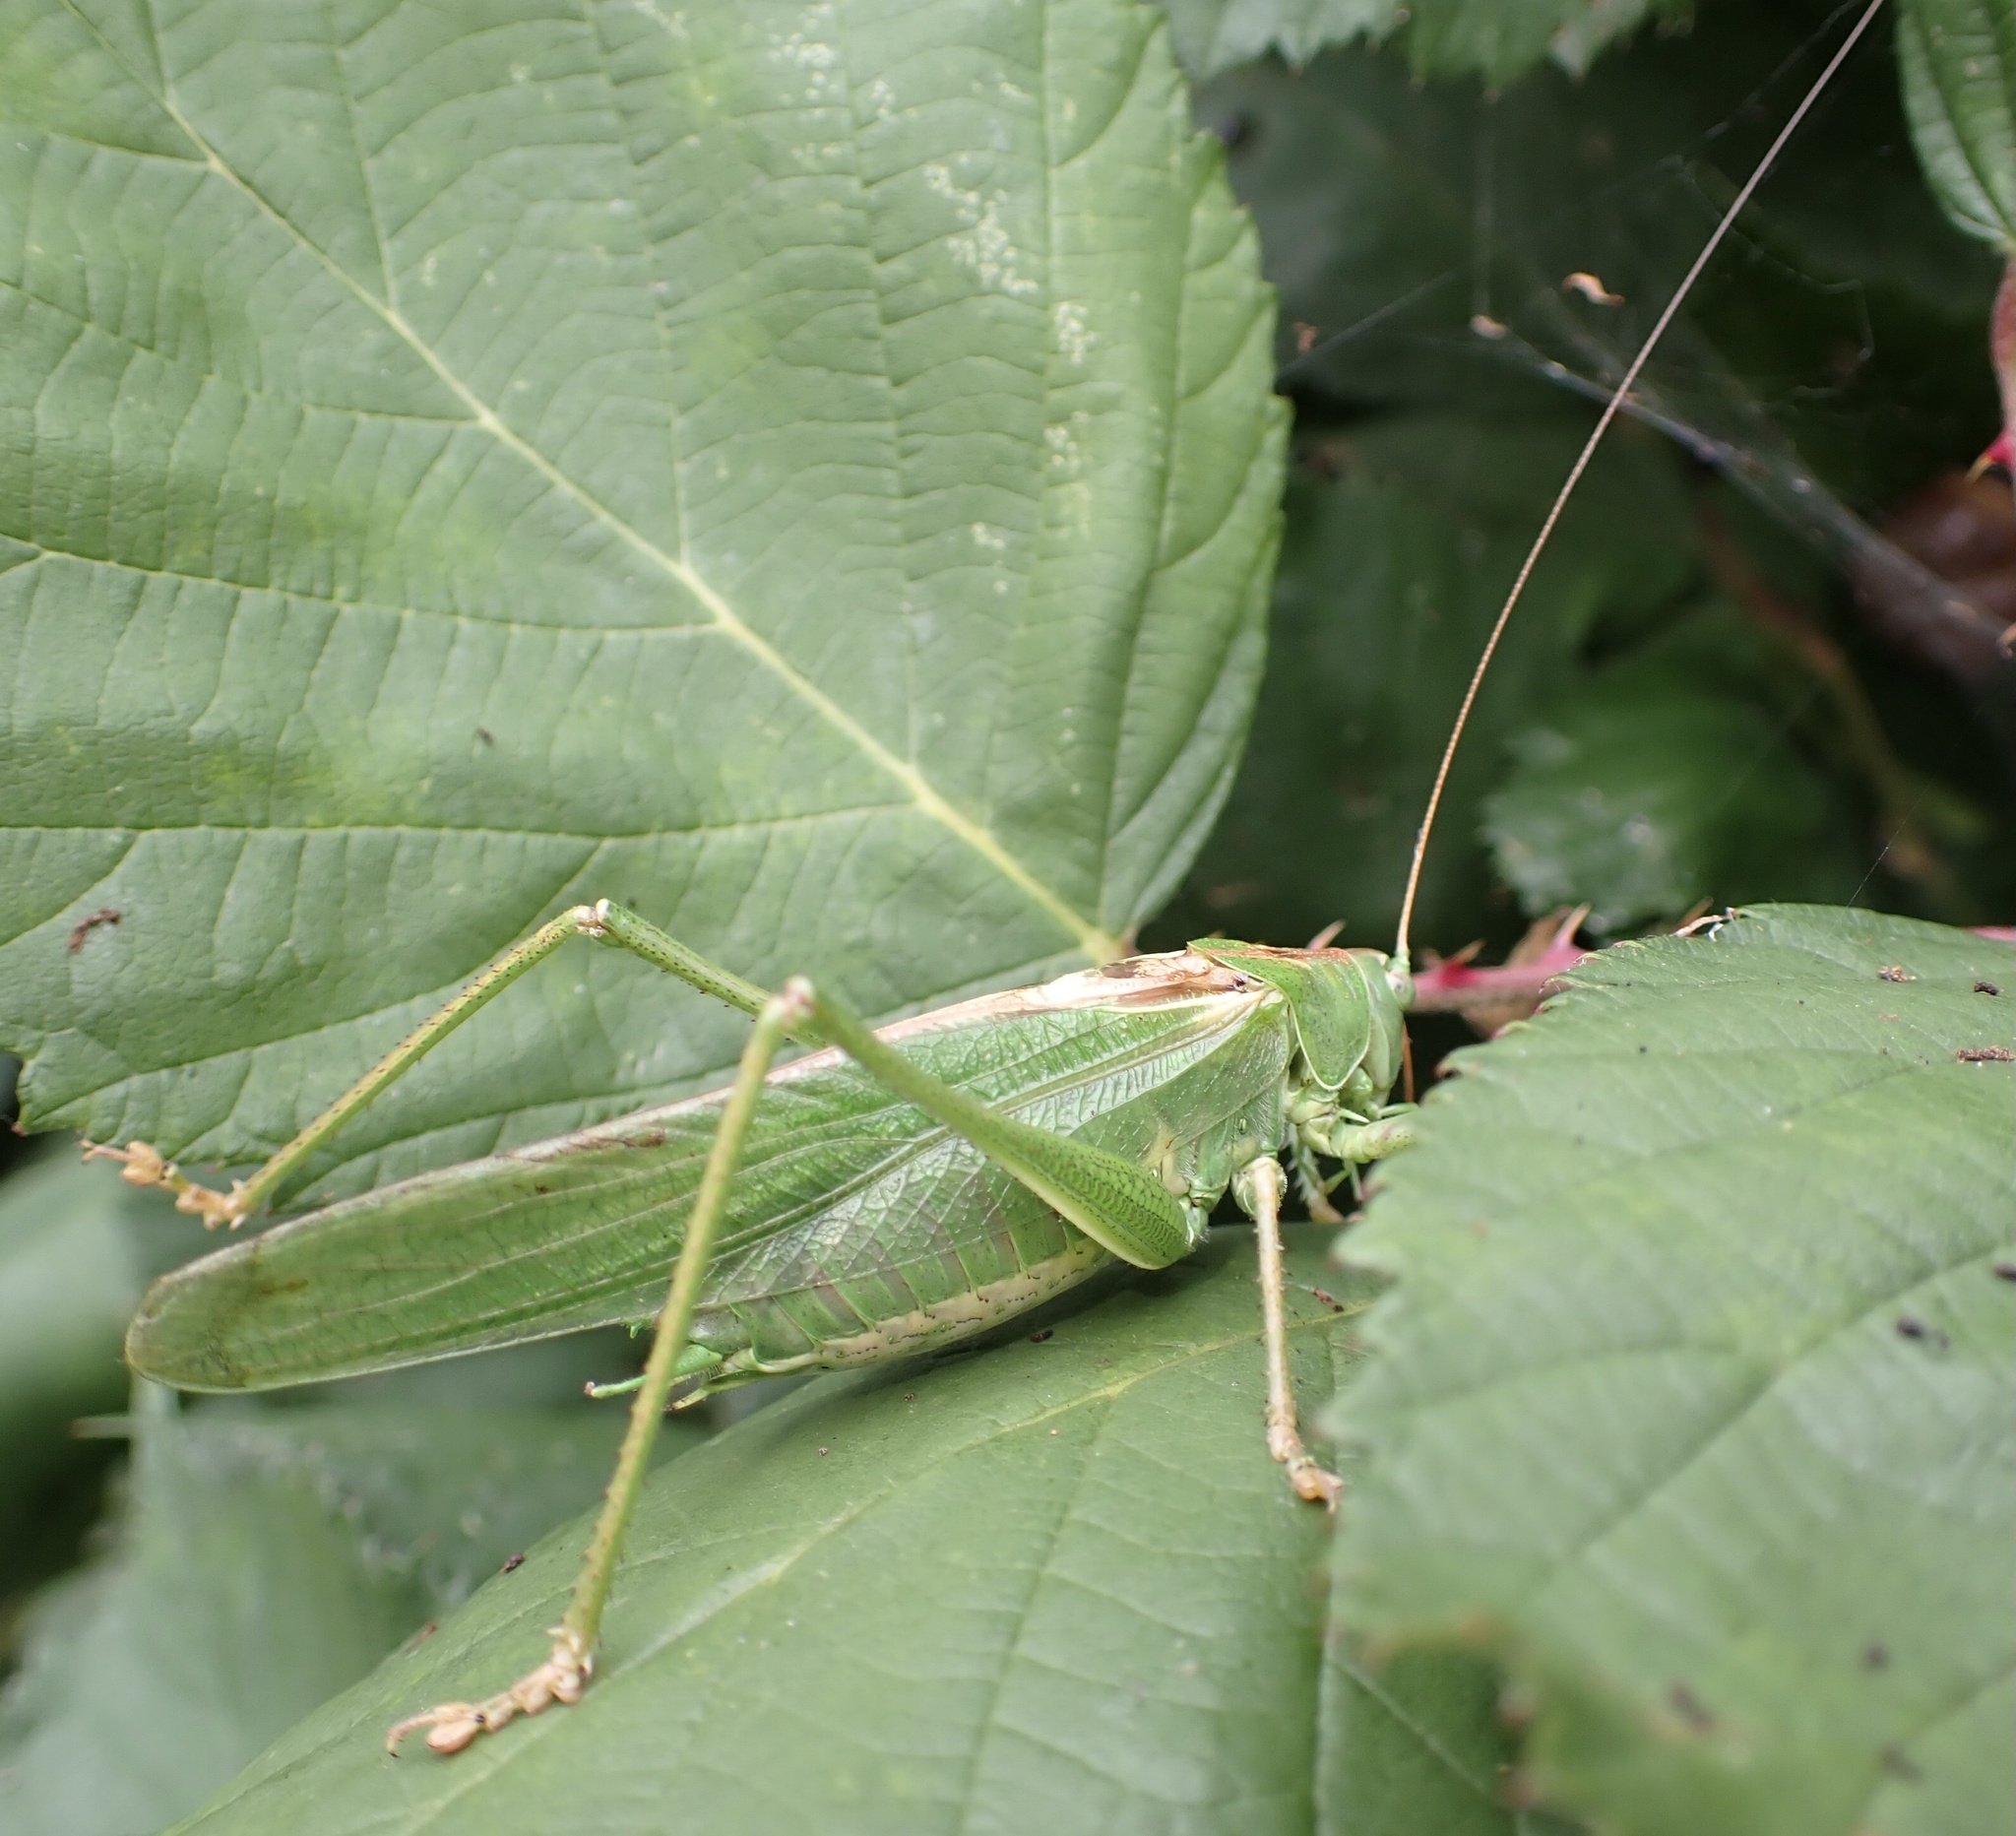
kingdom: Animalia
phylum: Arthropoda
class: Insecta
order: Orthoptera
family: Tettigoniidae
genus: Tettigonia
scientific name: Tettigonia viridissima
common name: Great green bush-cricket
